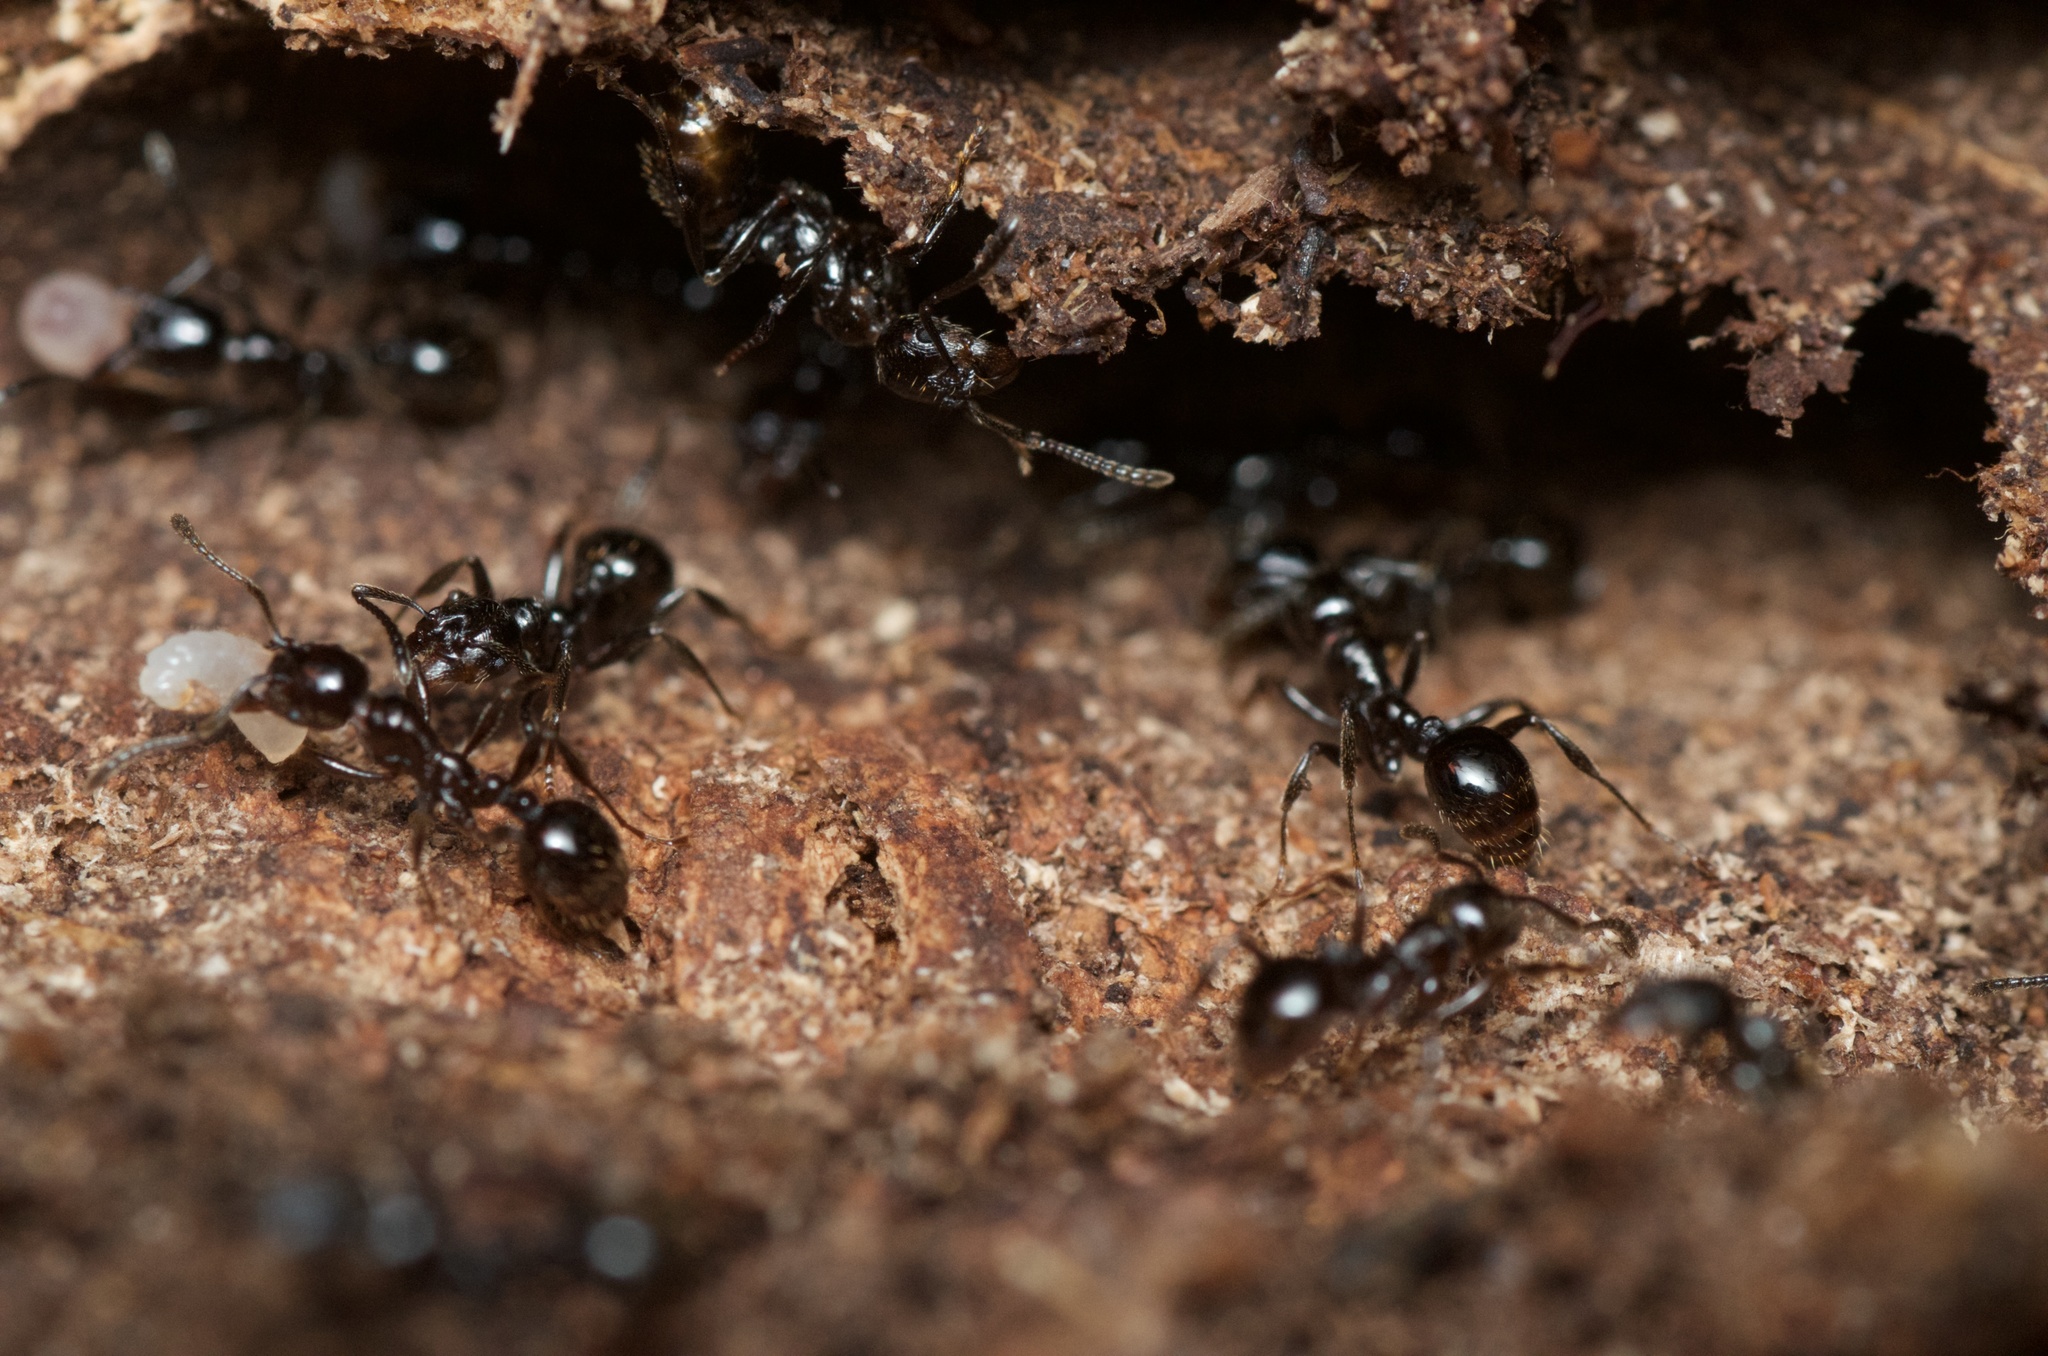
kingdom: Animalia
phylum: Arthropoda
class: Insecta
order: Hymenoptera
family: Formicidae
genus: Monomorium
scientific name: Monomorium antarcticum
